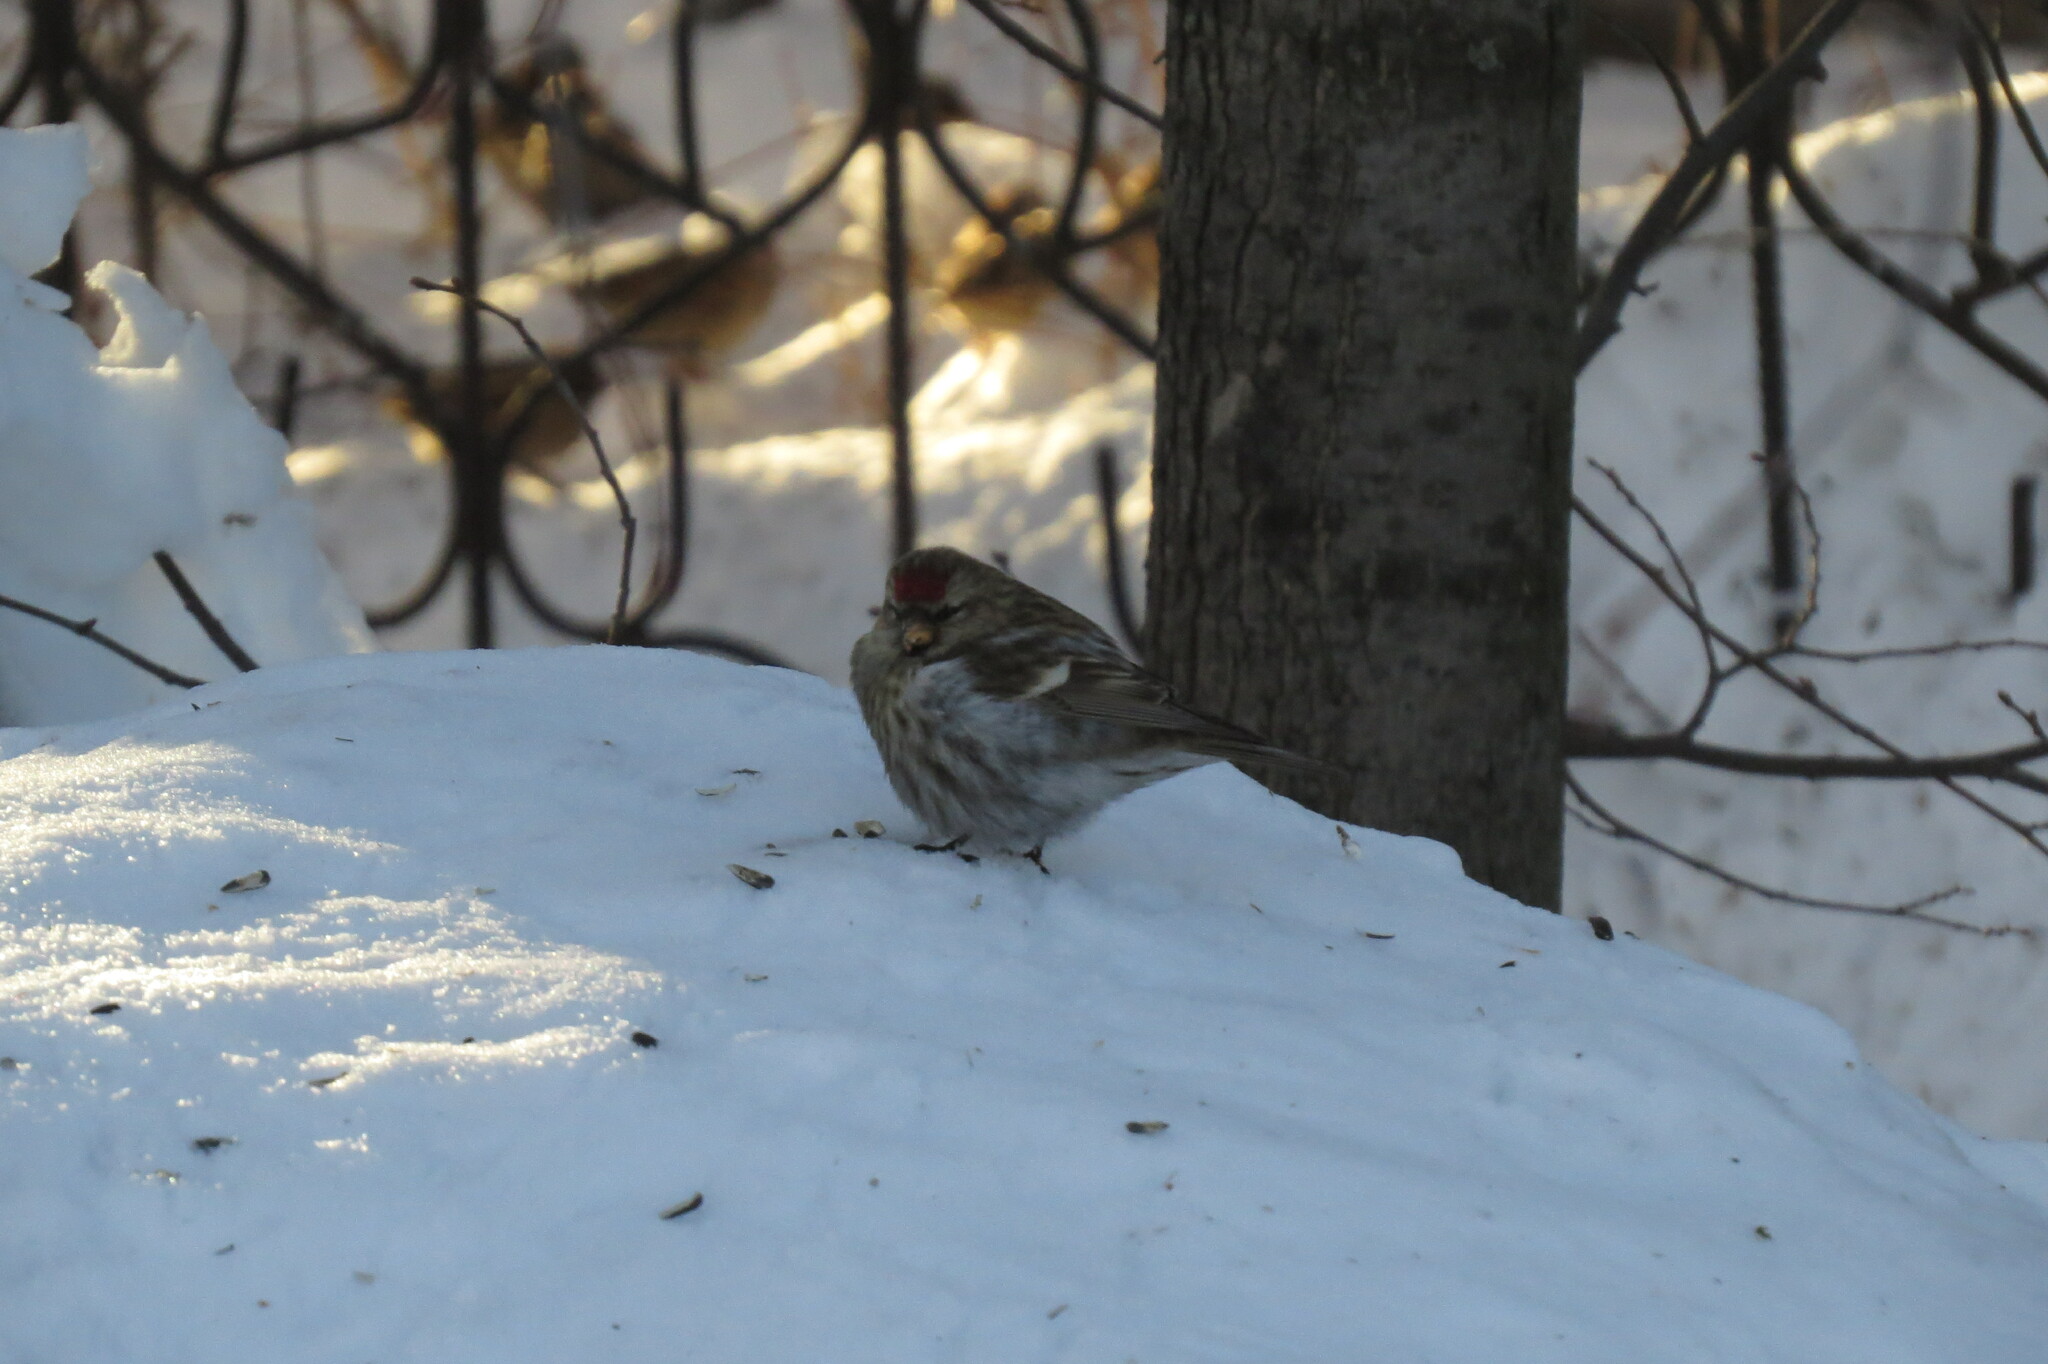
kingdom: Animalia
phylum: Chordata
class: Aves
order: Passeriformes
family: Fringillidae
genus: Acanthis
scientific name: Acanthis flammea
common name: Common redpoll
